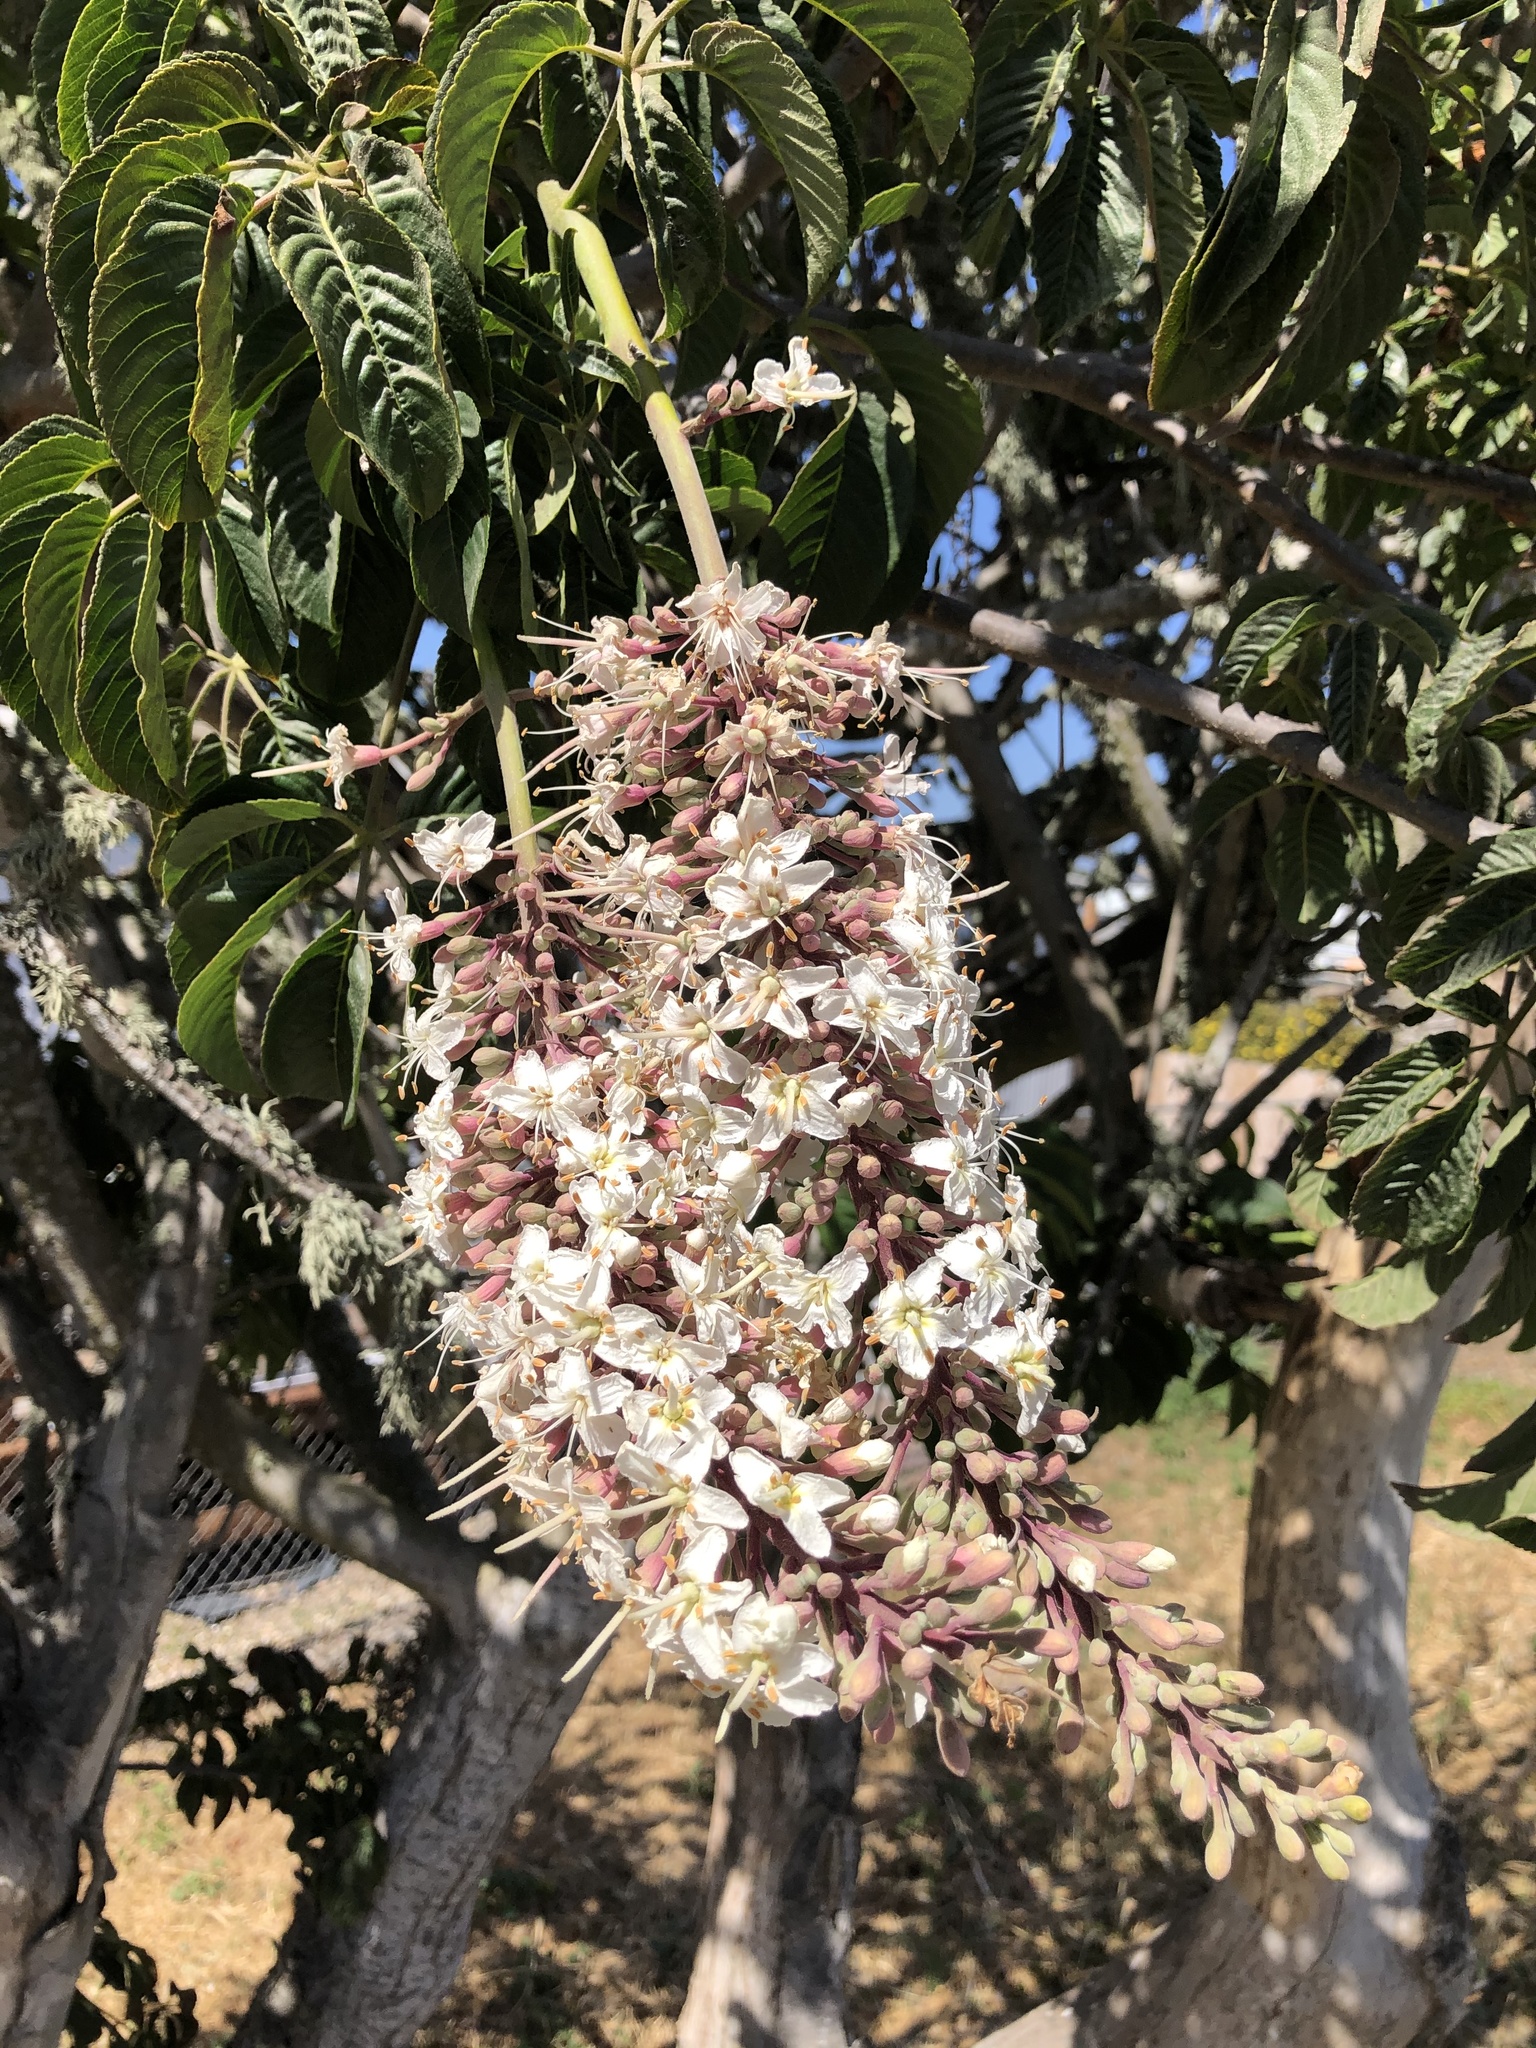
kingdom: Plantae
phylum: Tracheophyta
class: Magnoliopsida
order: Sapindales
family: Sapindaceae
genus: Aesculus
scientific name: Aesculus californica
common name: California buckeye
